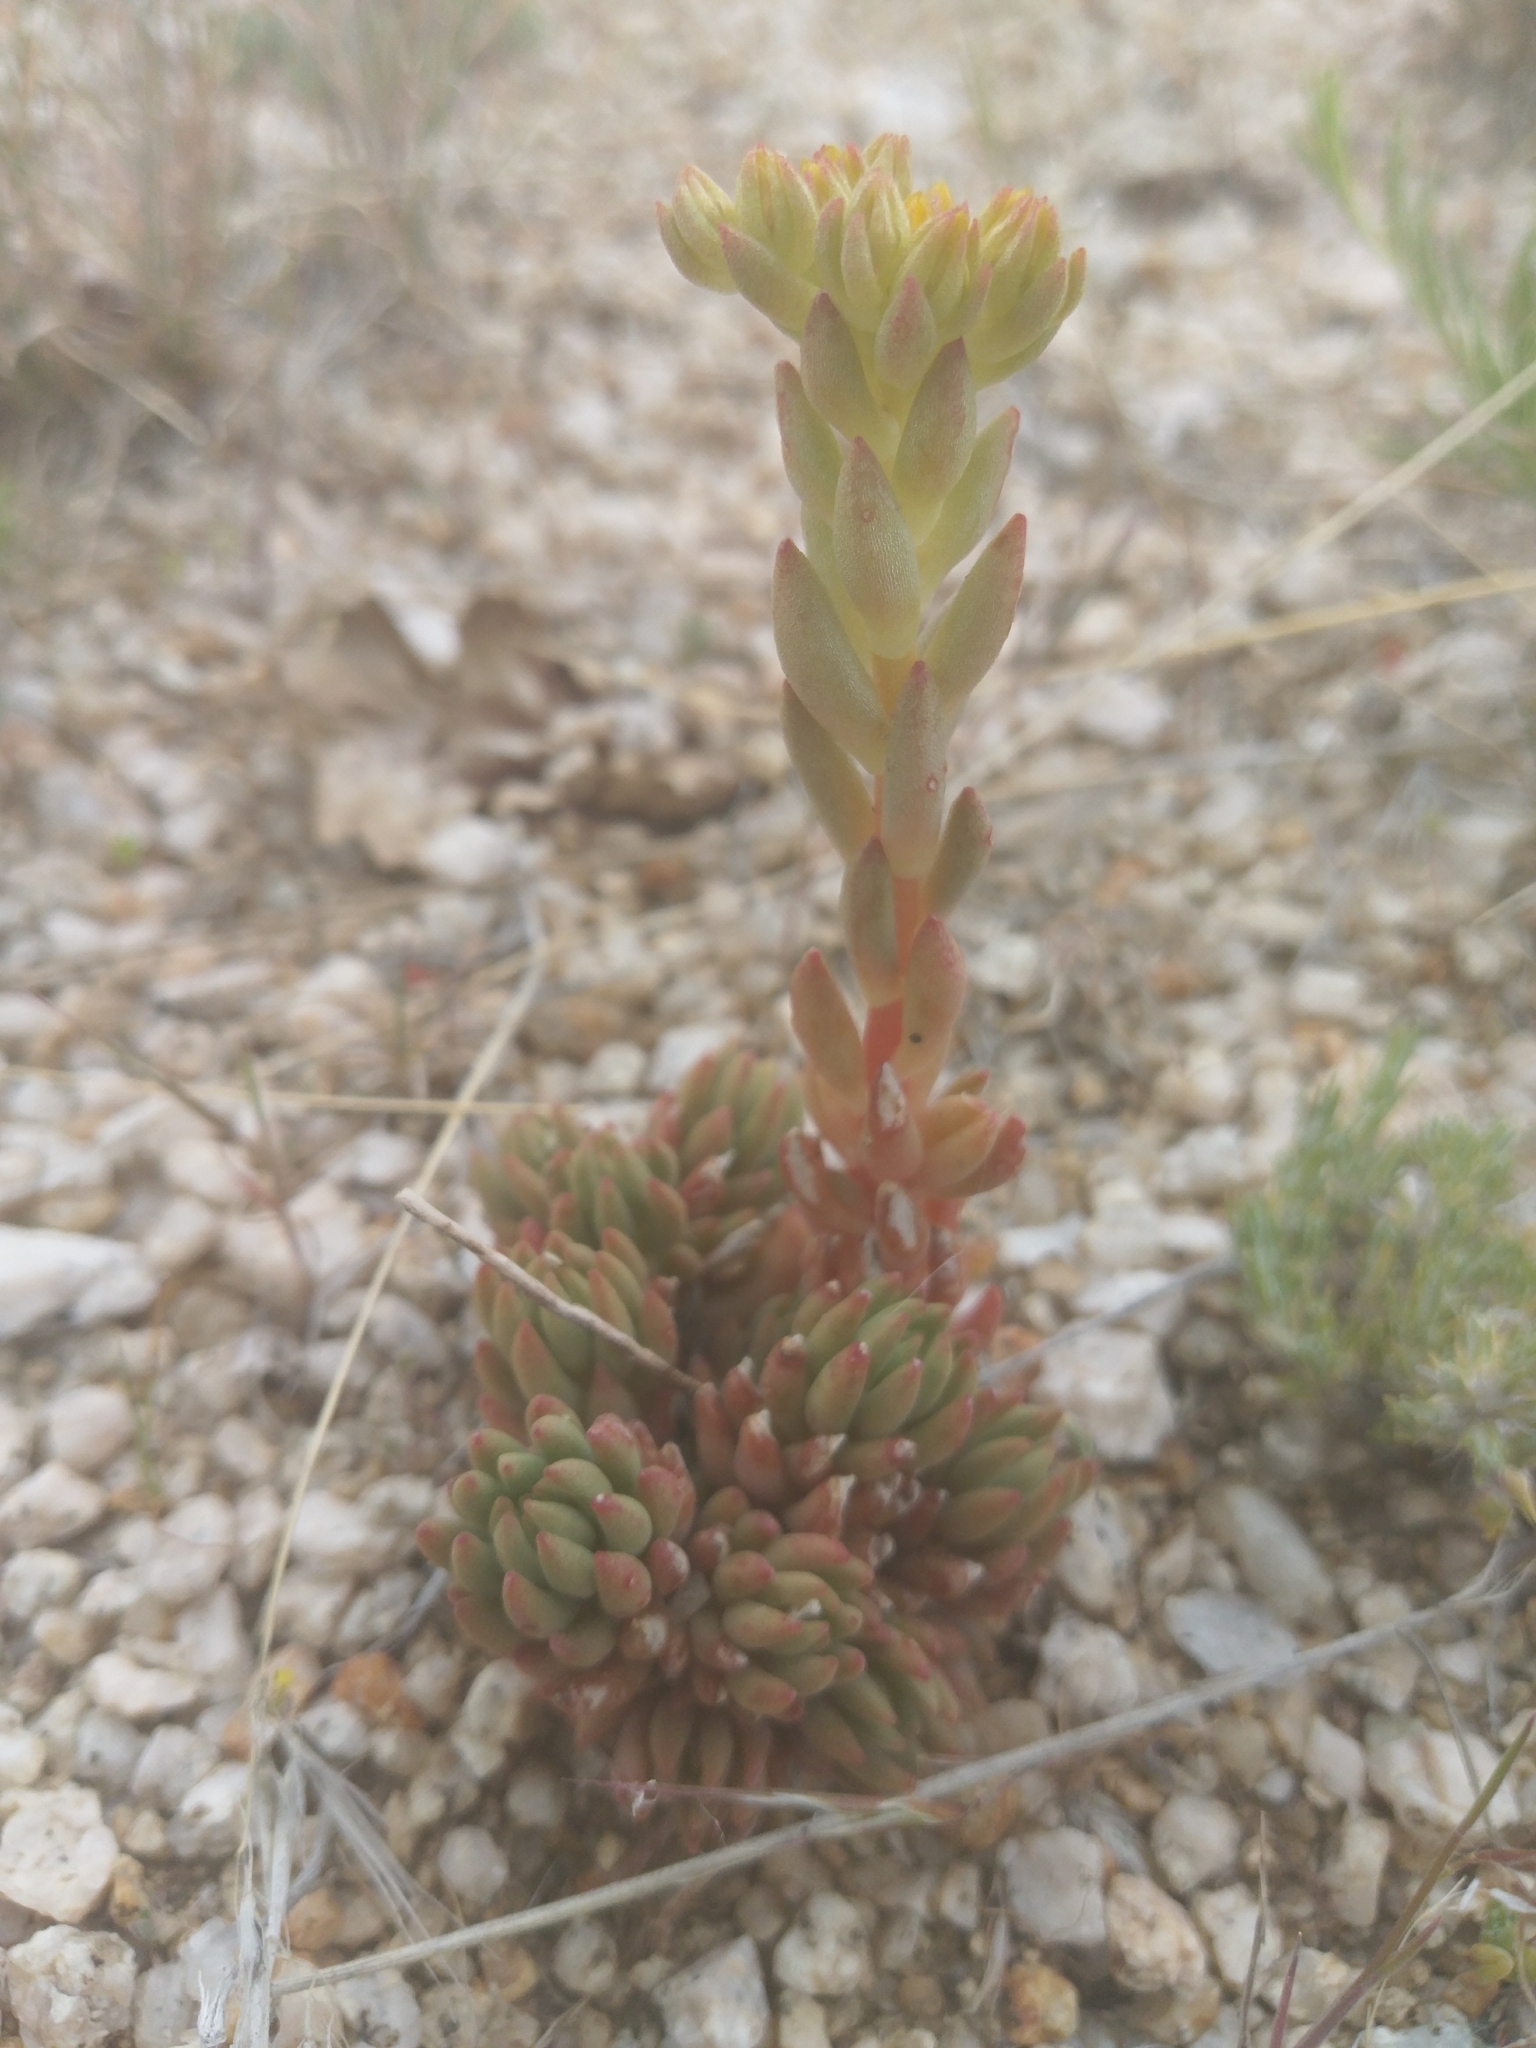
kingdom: Plantae
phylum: Tracheophyta
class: Magnoliopsida
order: Saxifragales
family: Crassulaceae
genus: Sedum
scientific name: Sedum lanceolatum
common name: Common stonecrop
